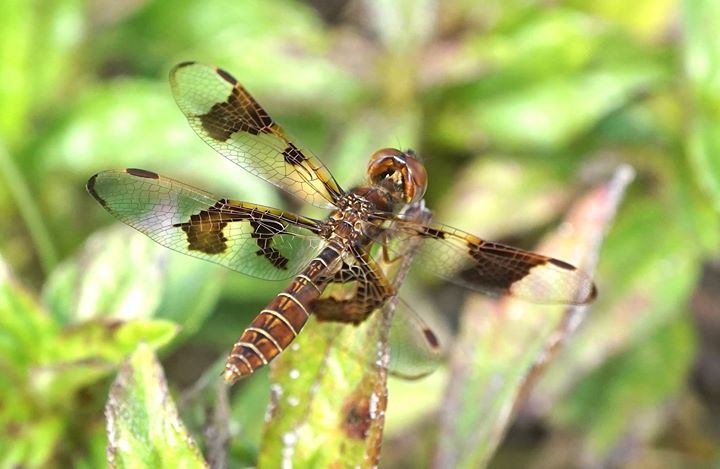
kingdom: Animalia
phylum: Arthropoda
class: Insecta
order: Odonata
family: Libellulidae
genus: Perithemis
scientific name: Perithemis tenera
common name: Eastern amberwing
